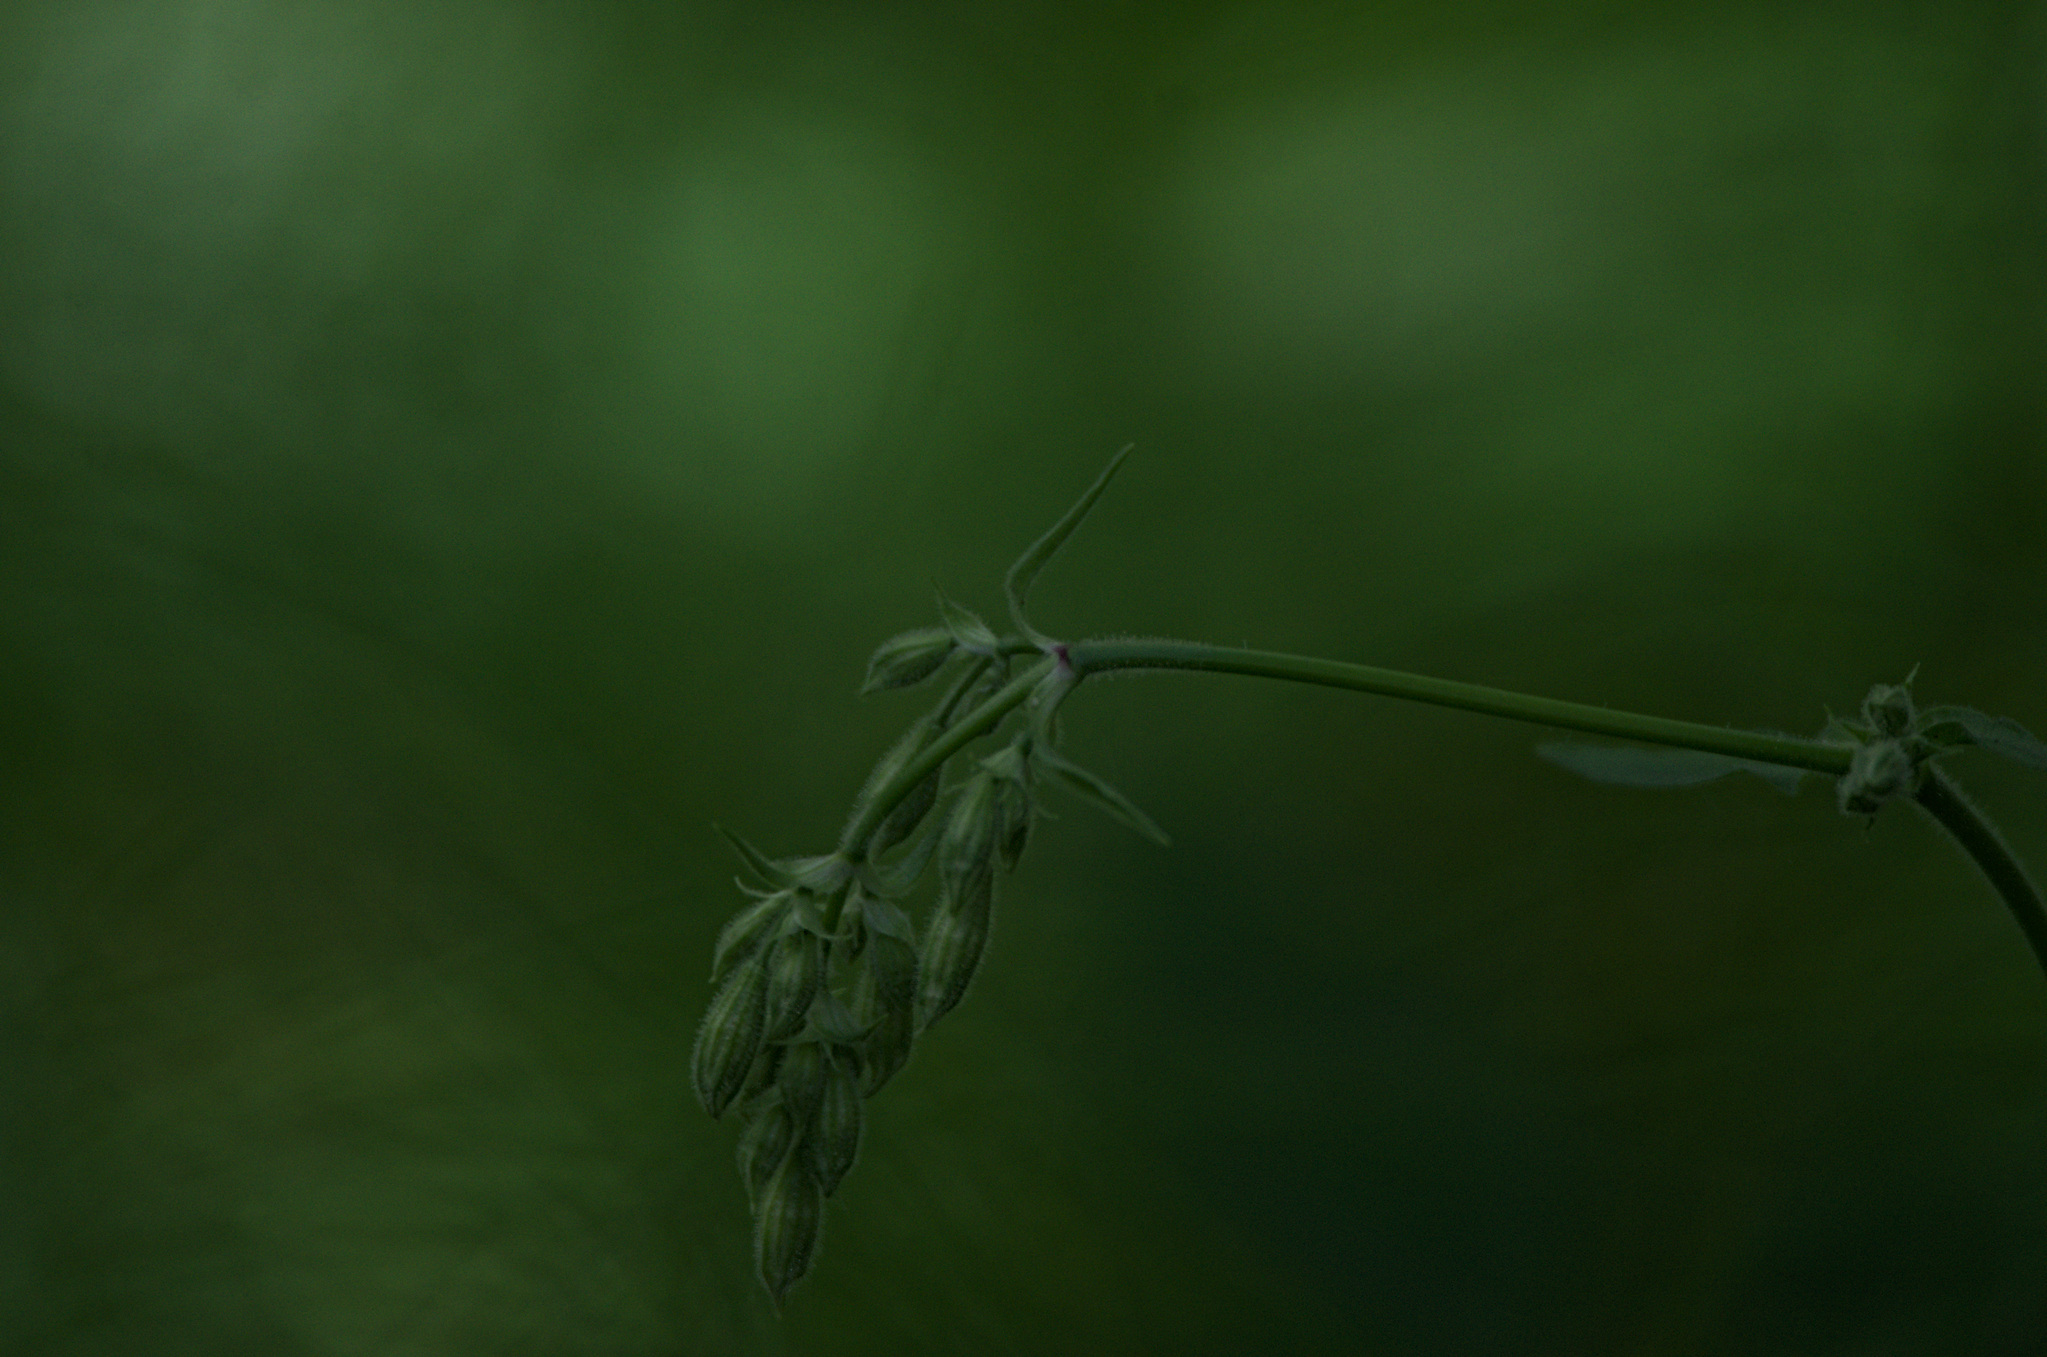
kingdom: Plantae
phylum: Tracheophyta
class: Magnoliopsida
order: Caryophyllales
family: Caryophyllaceae
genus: Silene
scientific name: Silene nutans
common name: Nottingham catchfly
